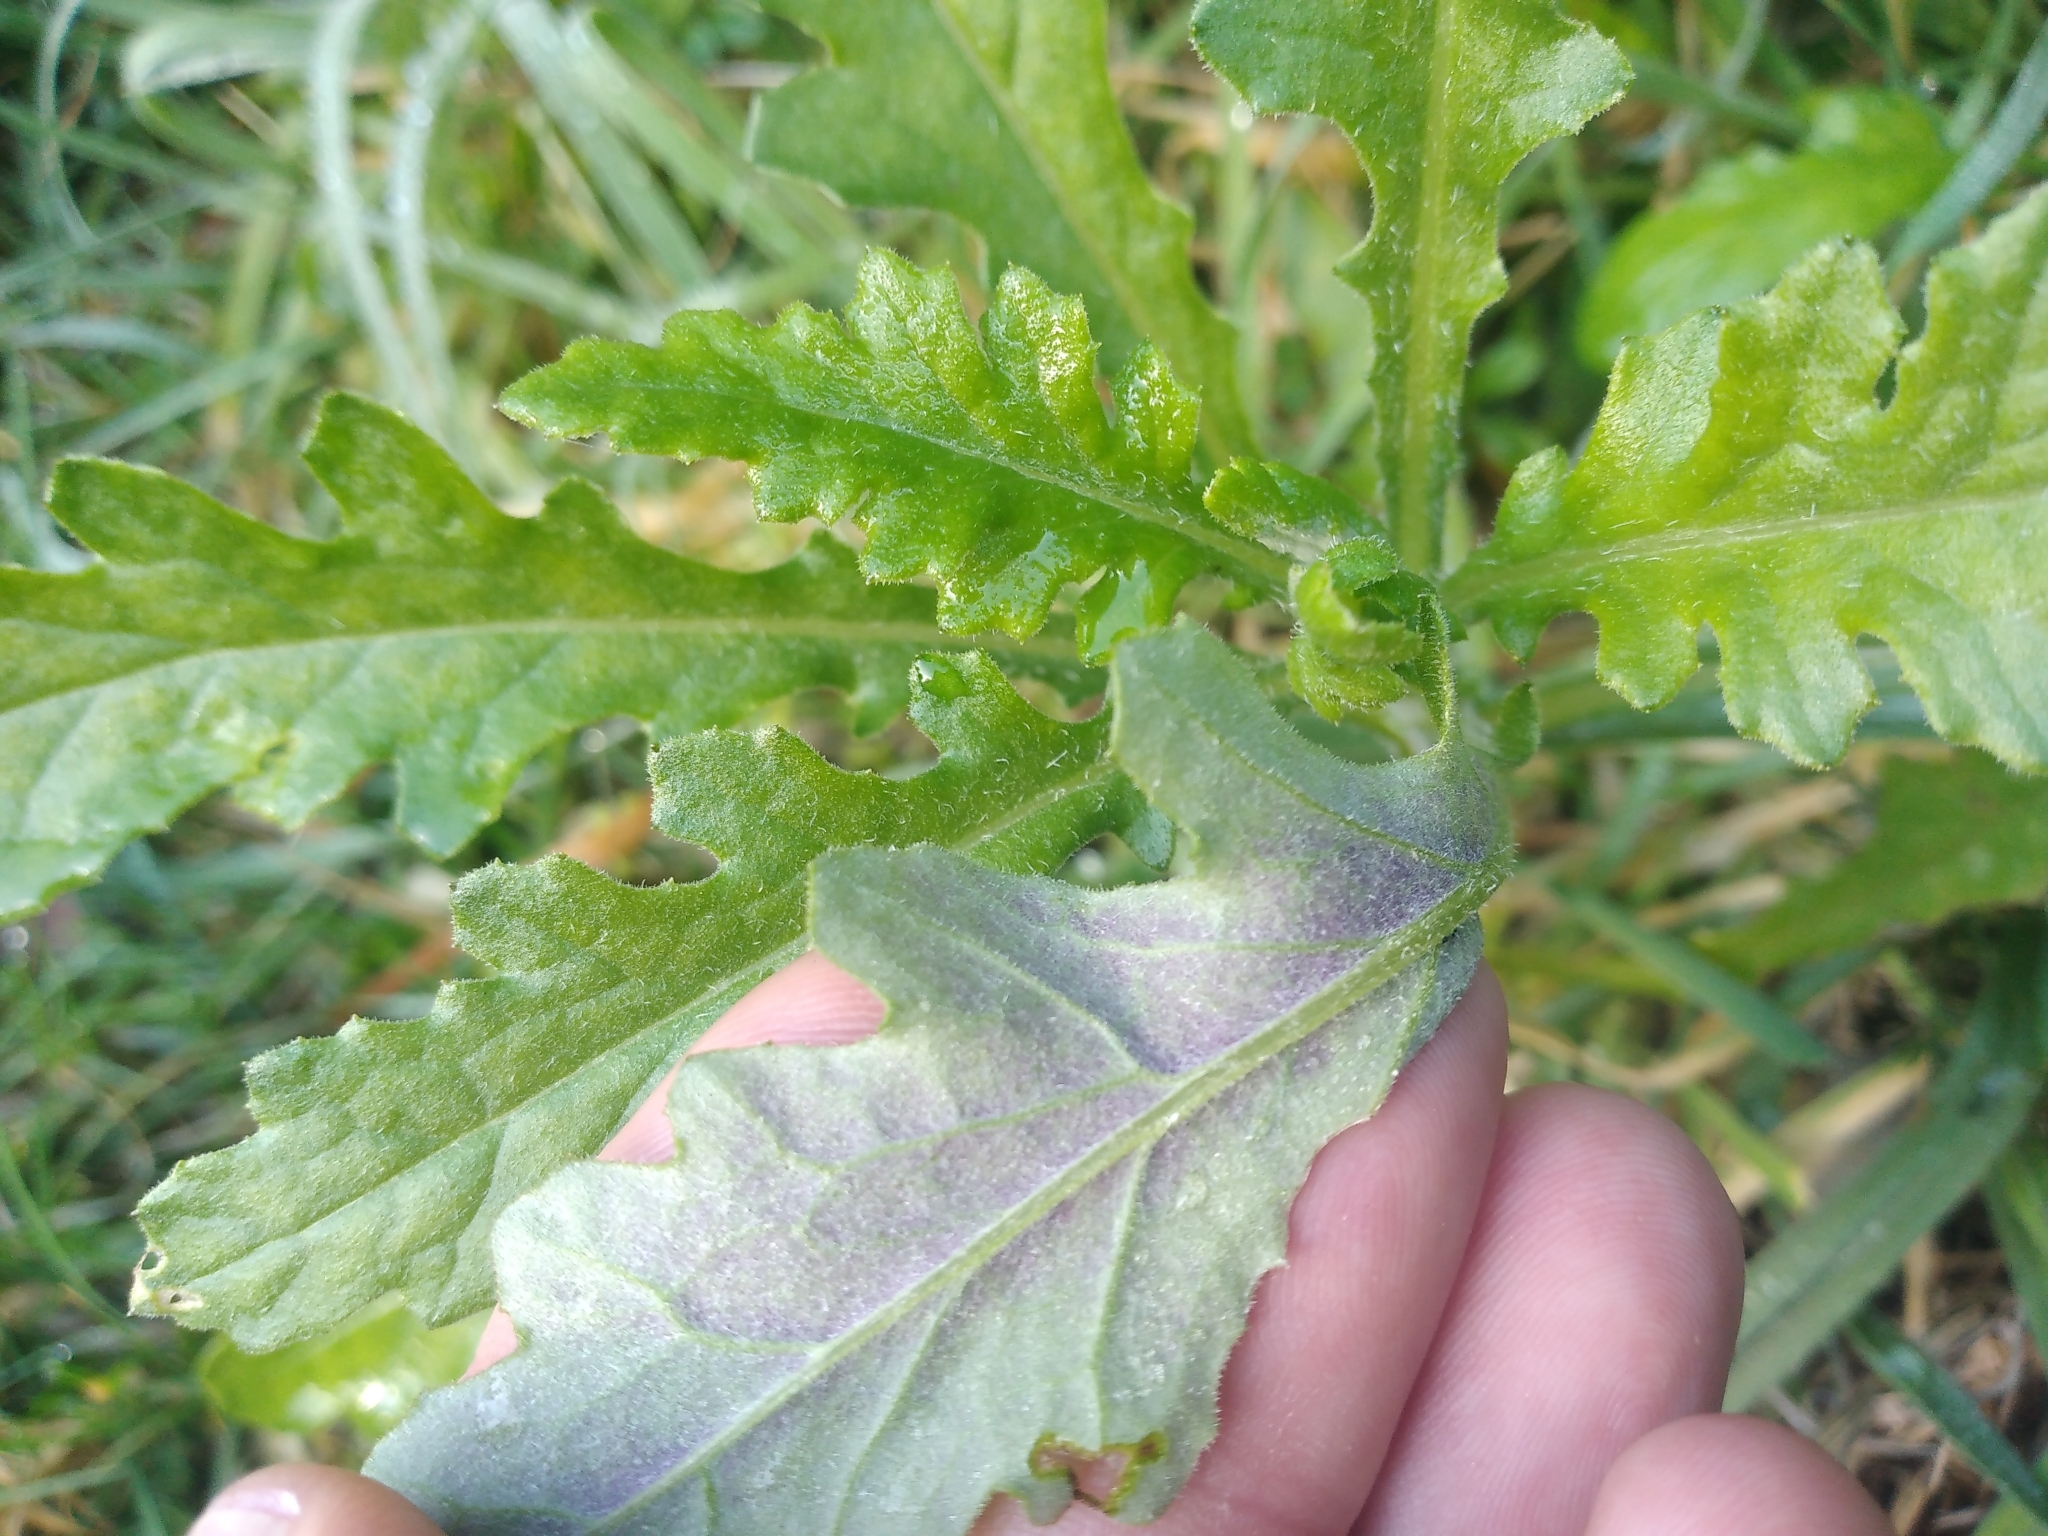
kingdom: Plantae
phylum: Tracheophyta
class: Magnoliopsida
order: Asterales
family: Asteraceae
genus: Senecio
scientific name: Senecio glomeratus
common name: Cutleaf burnweed
